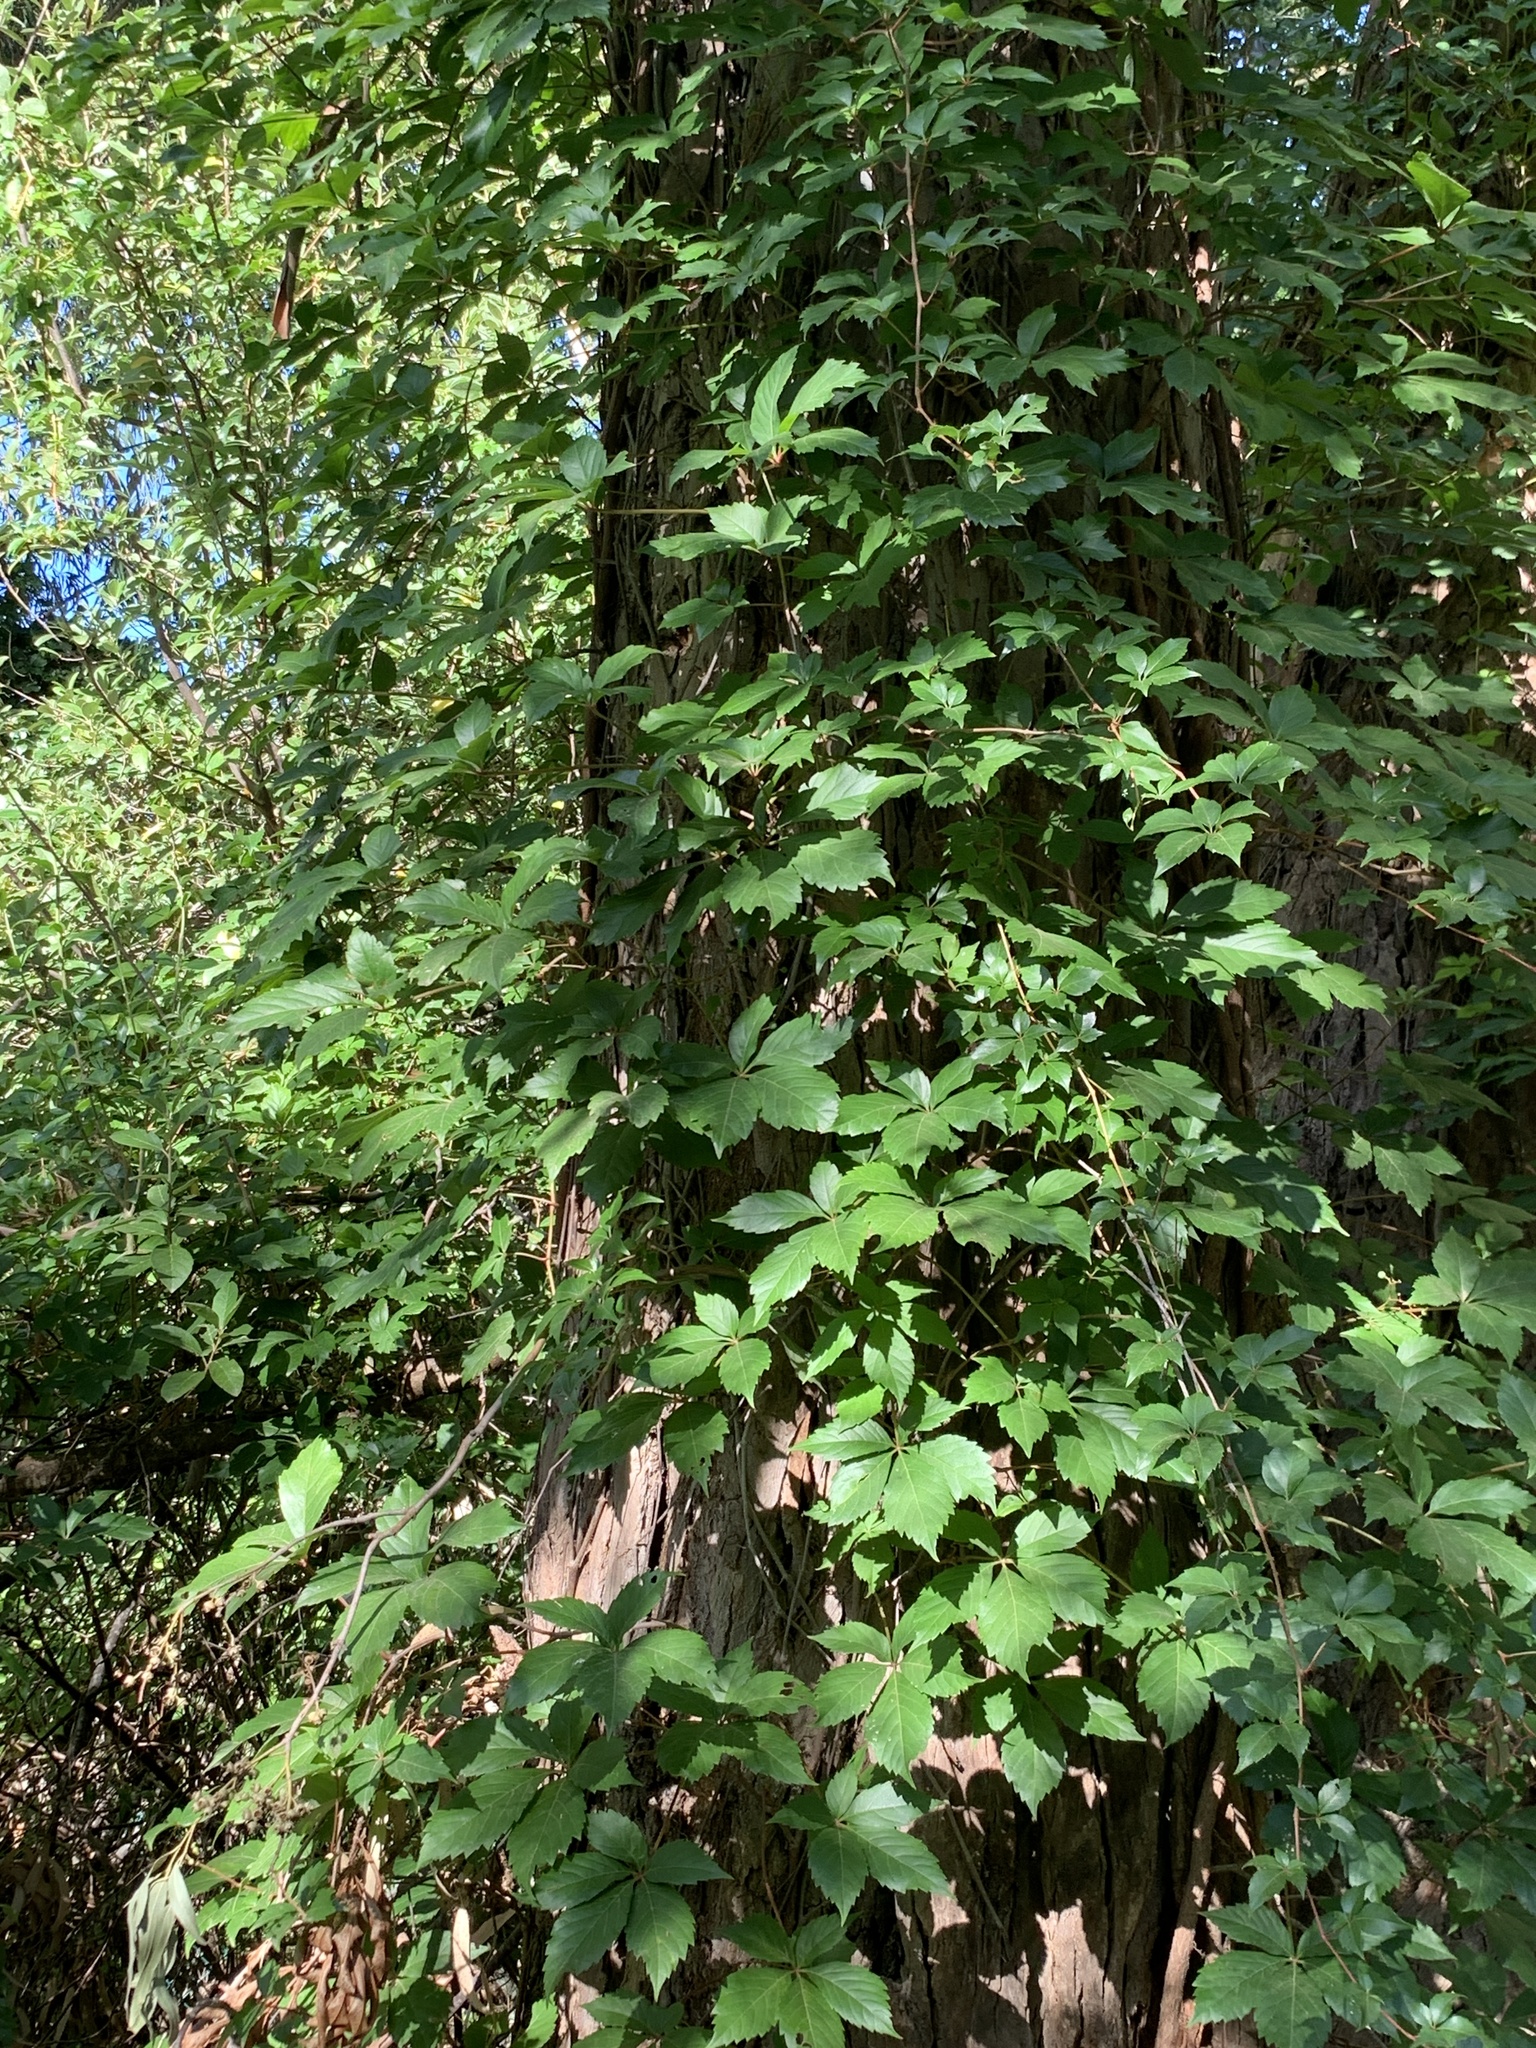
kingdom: Plantae
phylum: Tracheophyta
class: Magnoliopsida
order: Vitales
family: Vitaceae
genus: Parthenocissus
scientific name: Parthenocissus quinquefolia
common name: Virginia-creeper
